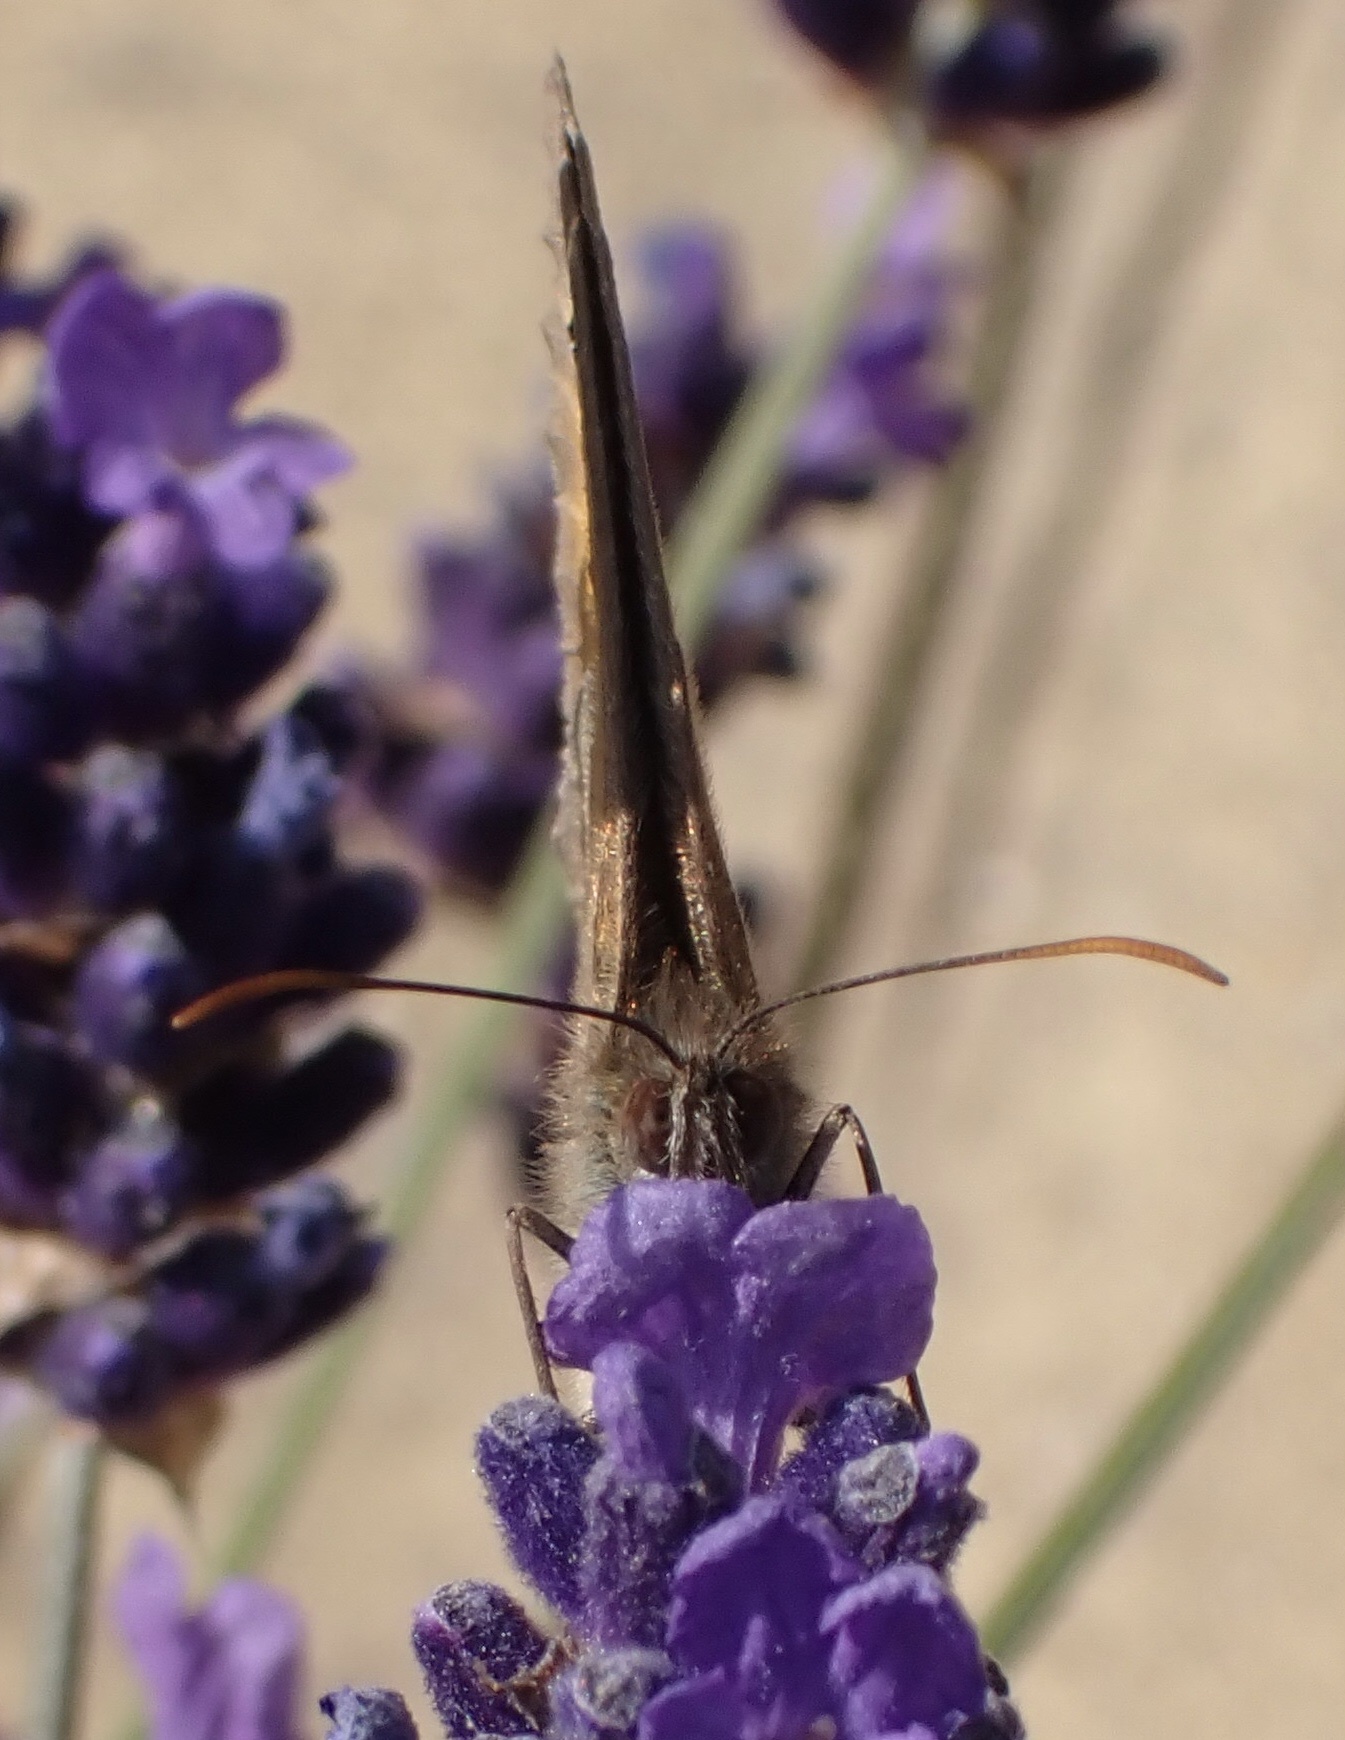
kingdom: Animalia
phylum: Arthropoda
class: Insecta
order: Lepidoptera
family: Nymphalidae
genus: Maniola
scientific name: Maniola jurtina
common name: Meadow brown
